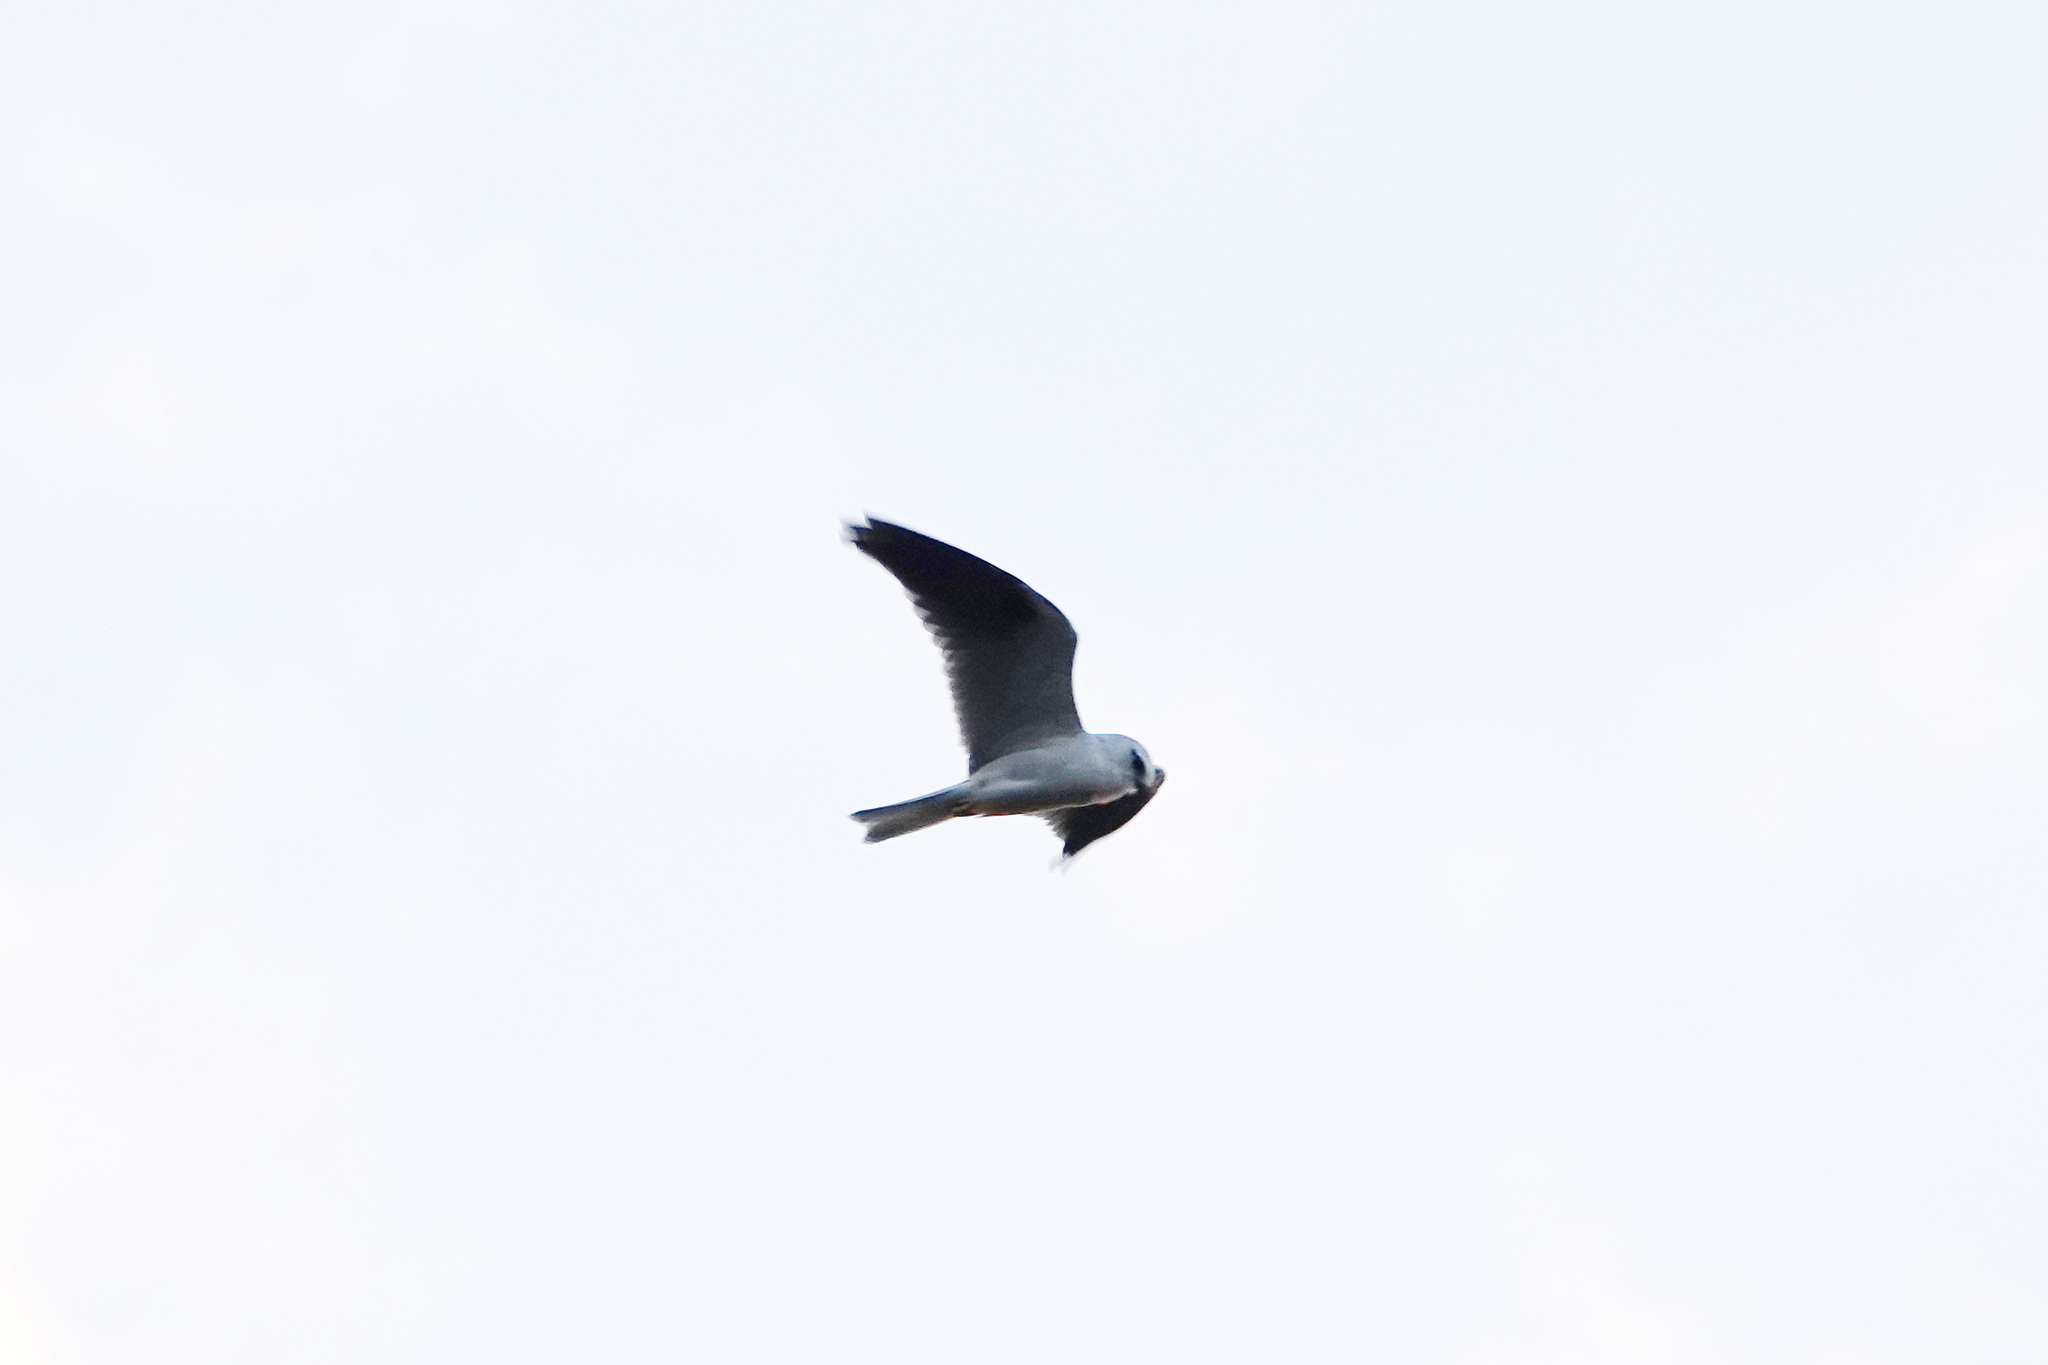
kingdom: Animalia
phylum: Chordata
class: Aves
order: Accipitriformes
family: Accipitridae
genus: Elanus
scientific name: Elanus axillaris
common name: Black-shouldered kite
